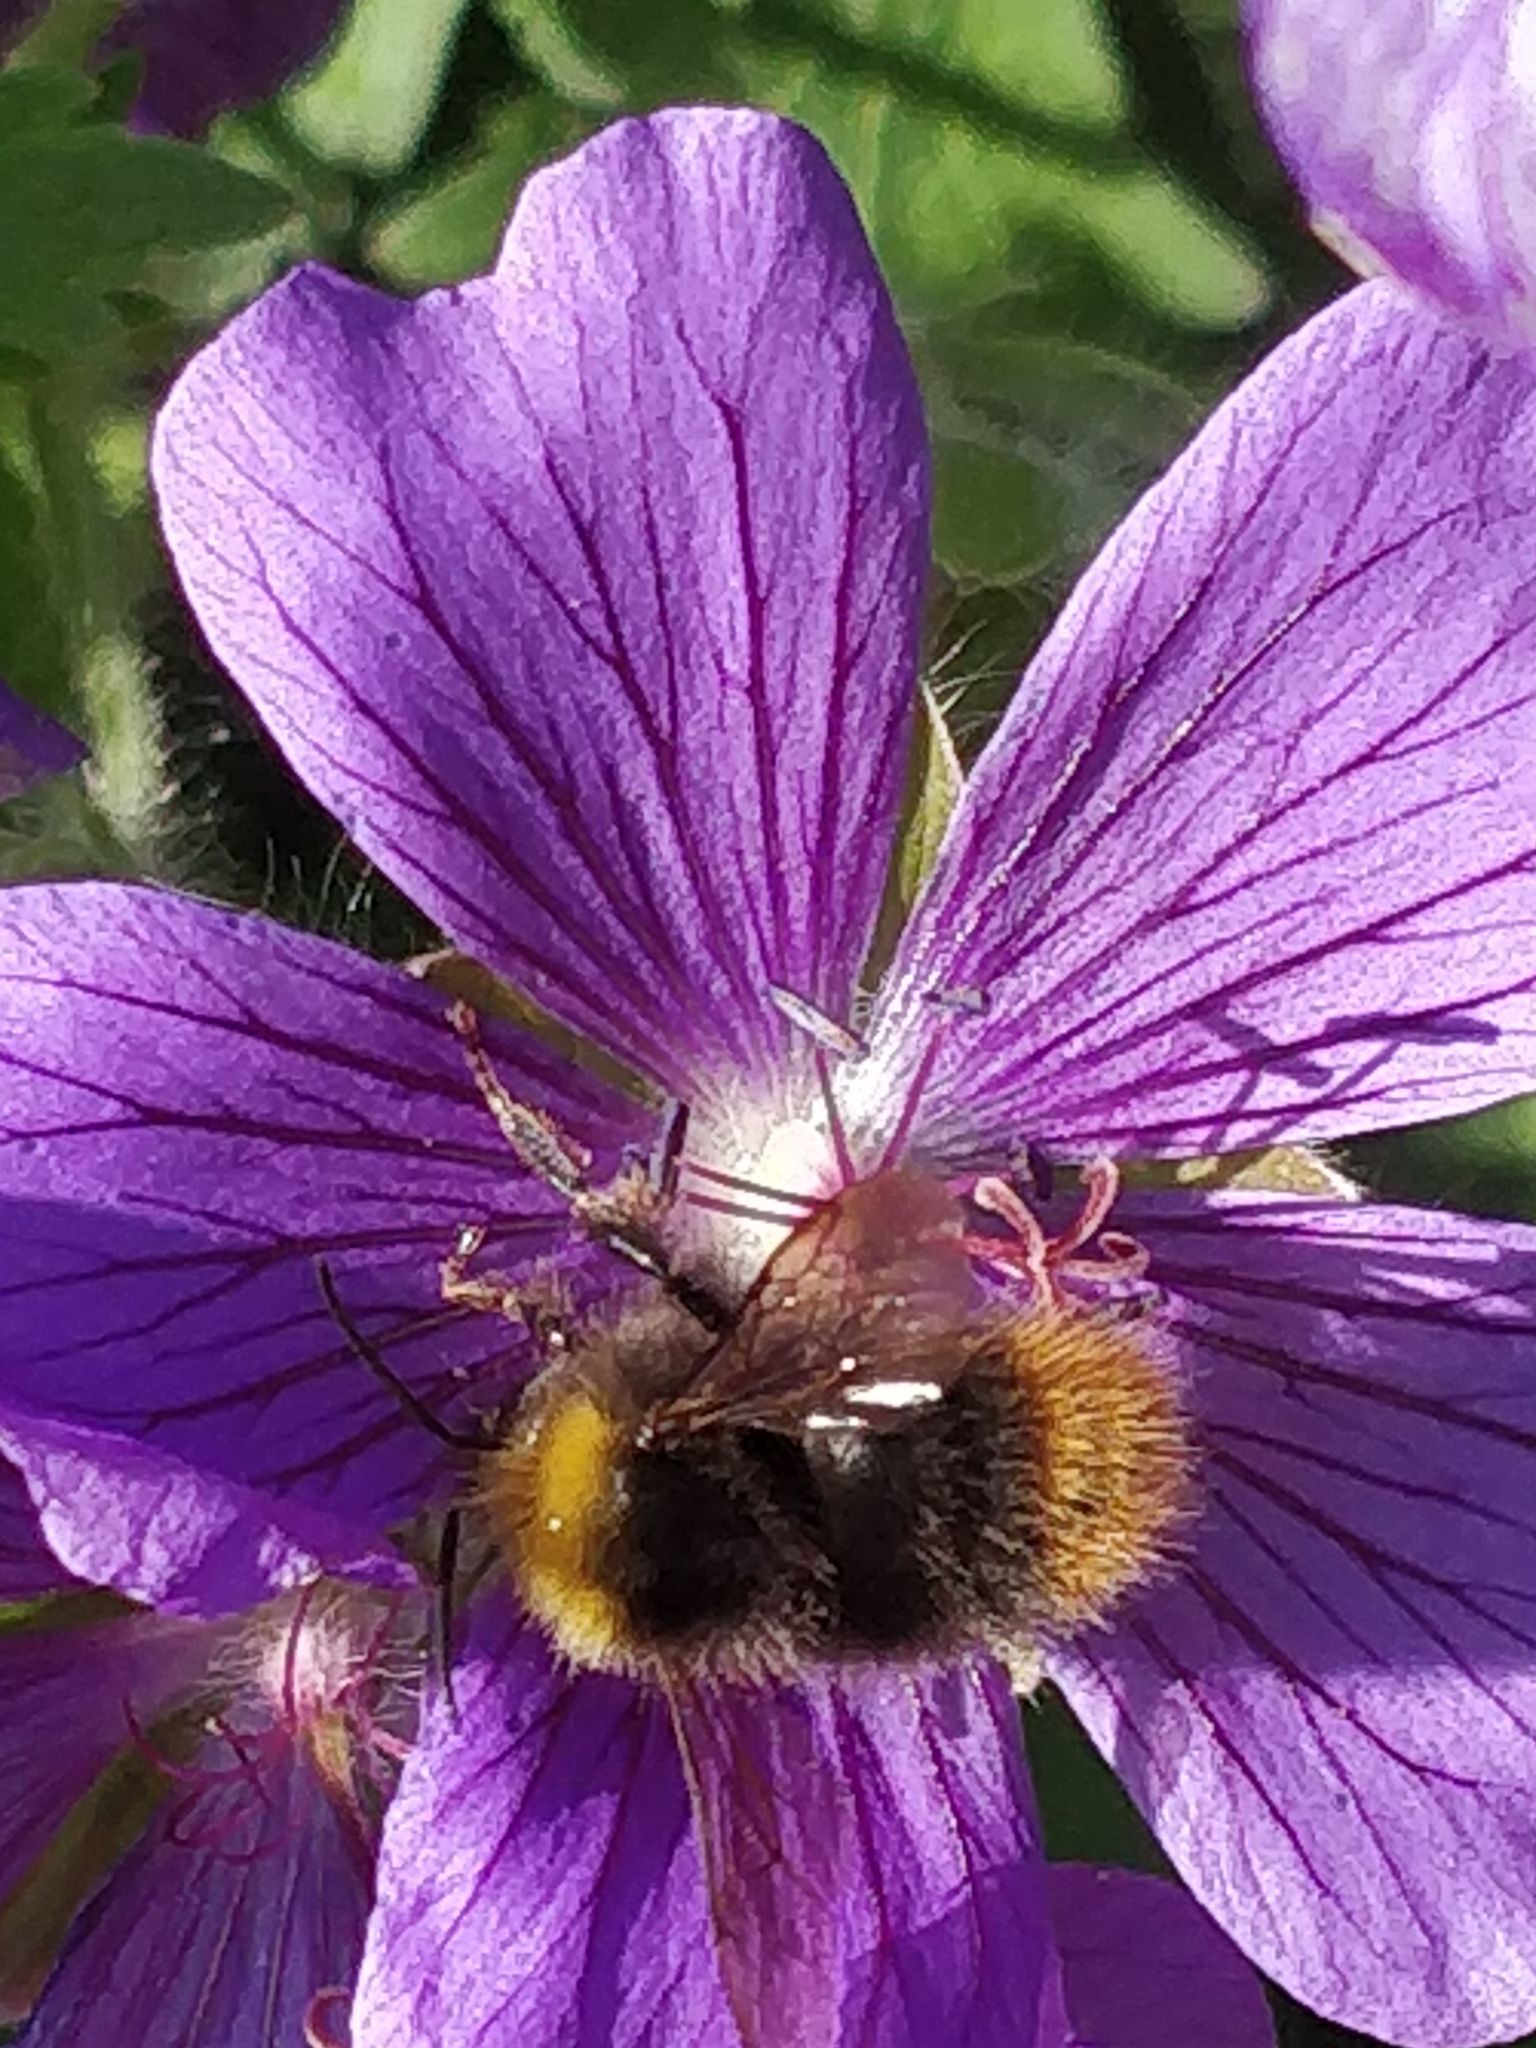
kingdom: Animalia
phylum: Arthropoda
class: Insecta
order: Hymenoptera
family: Apidae
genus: Bombus
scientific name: Bombus pratorum
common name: Early humble-bee
